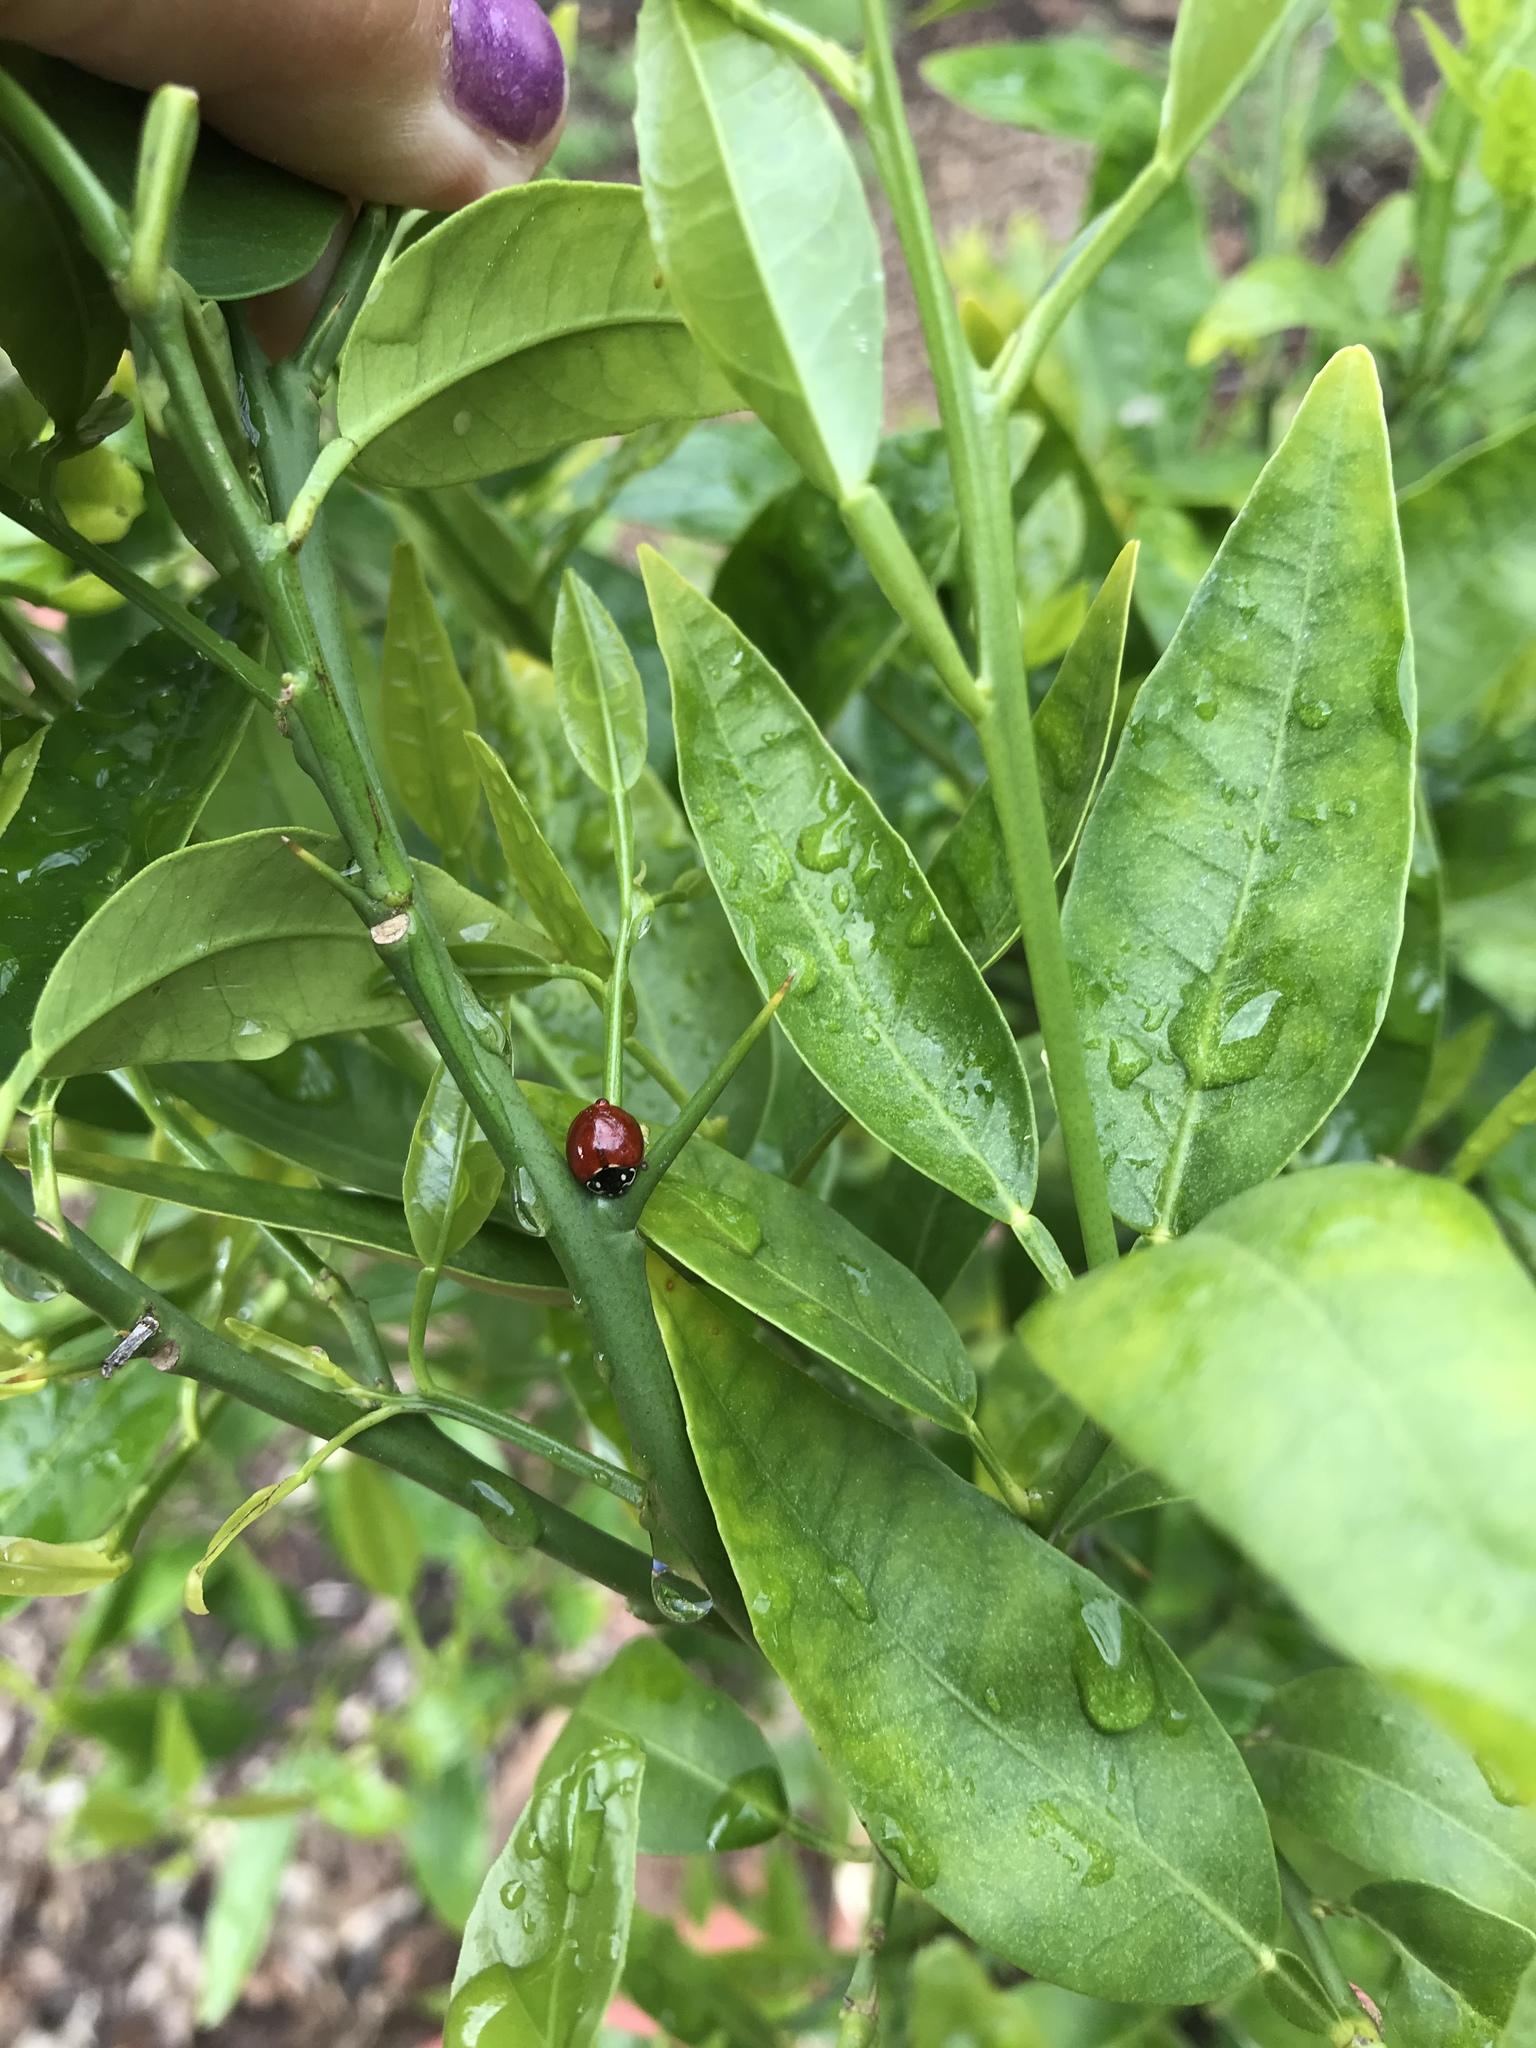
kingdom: Animalia
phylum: Arthropoda
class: Insecta
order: Coleoptera
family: Coccinellidae
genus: Cycloneda
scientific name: Cycloneda sanguinea
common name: Ladybird beetle
